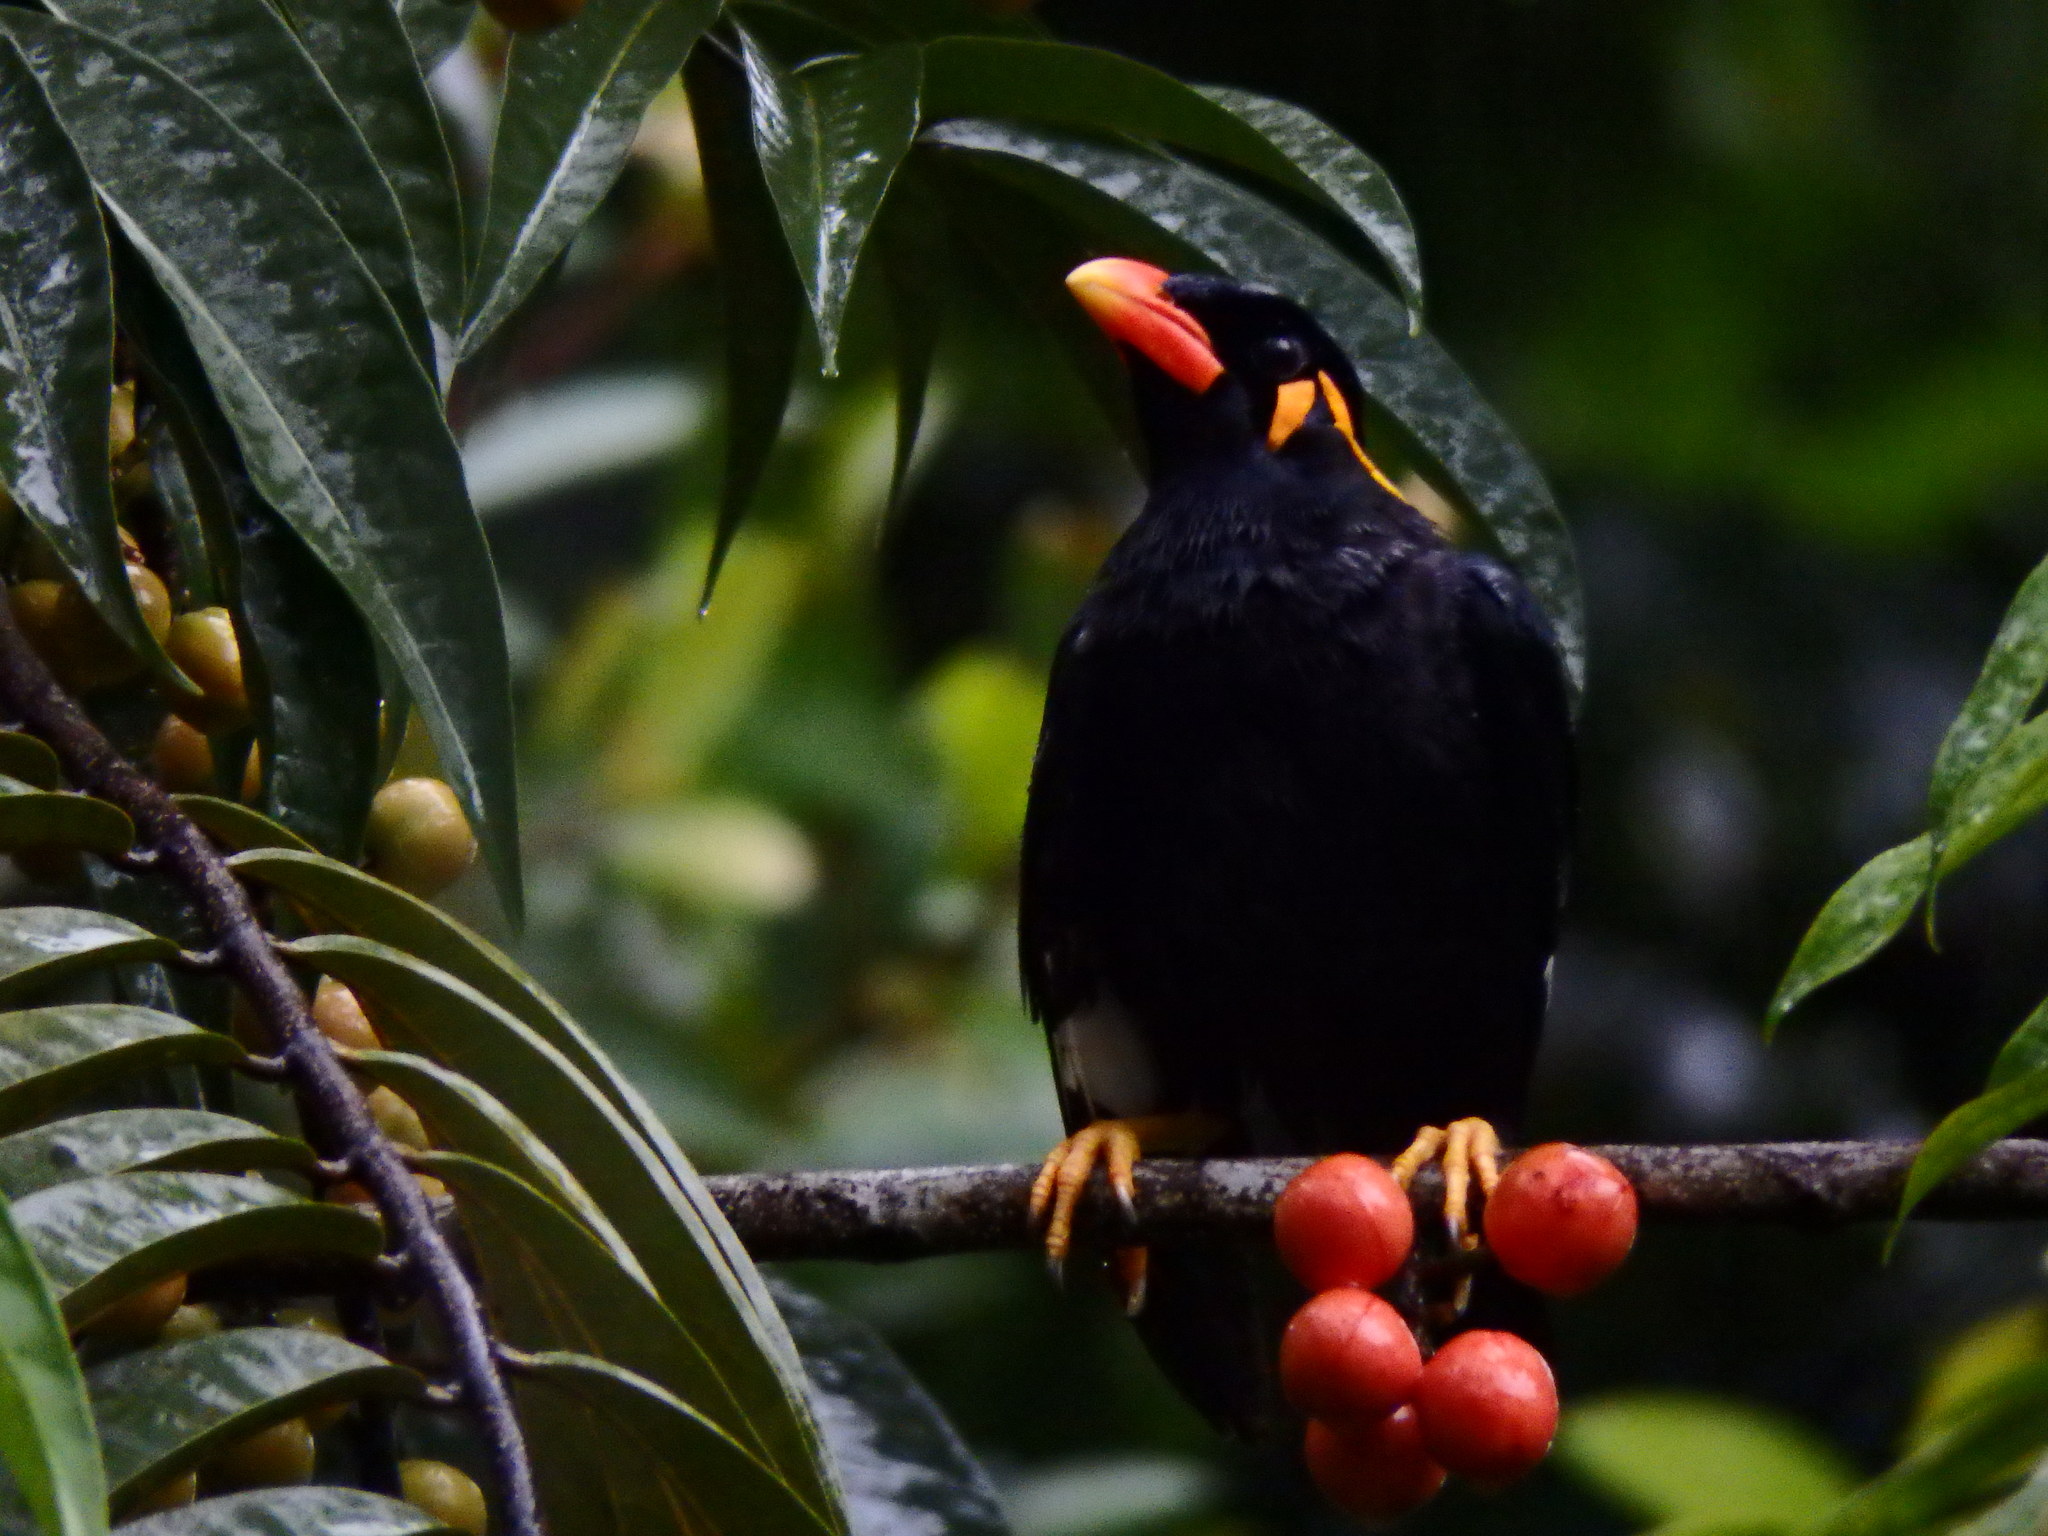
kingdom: Animalia
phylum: Chordata
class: Aves
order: Passeriformes
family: Sturnidae
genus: Gracula
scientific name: Gracula religiosa
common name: Common hill myna
